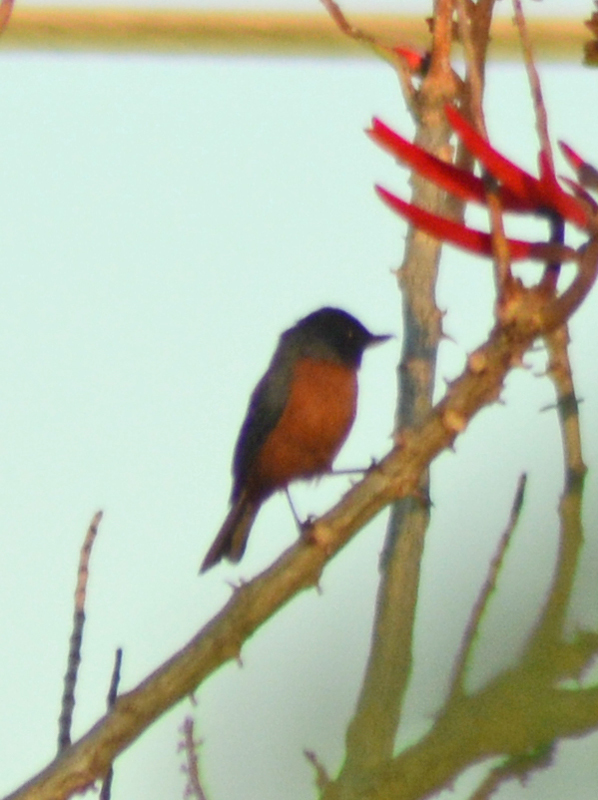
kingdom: Animalia
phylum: Chordata
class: Aves
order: Passeriformes
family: Thraupidae
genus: Diglossa
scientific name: Diglossa baritula
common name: Cinnamon-bellied flowerpiercer
